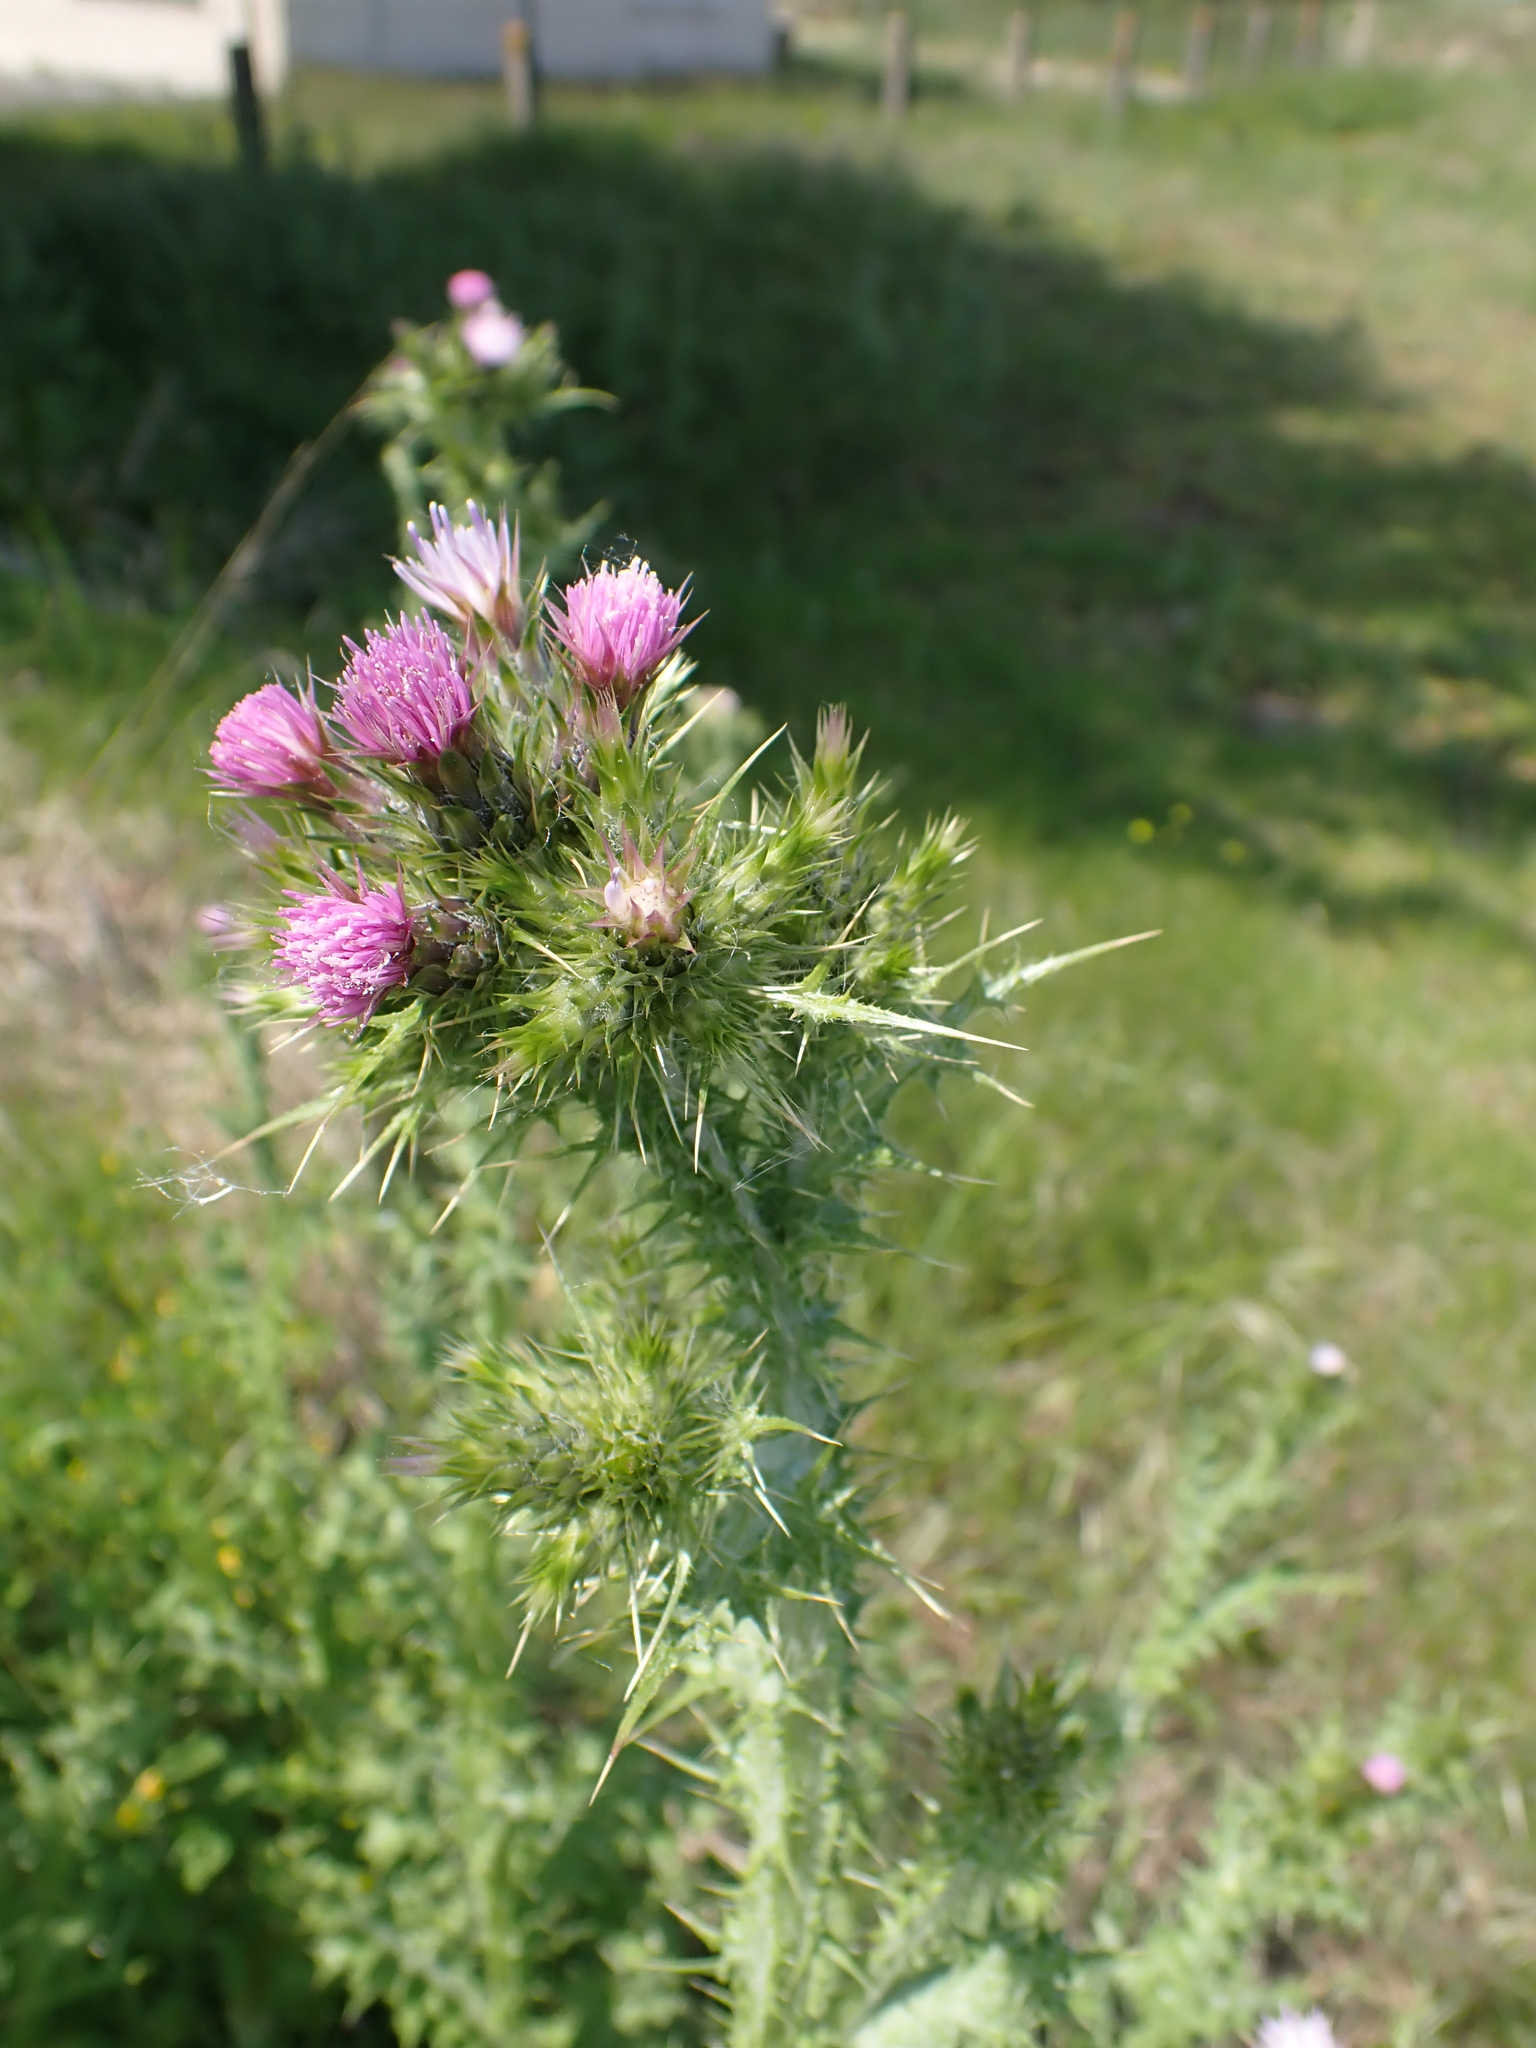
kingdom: Plantae
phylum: Tracheophyta
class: Magnoliopsida
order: Asterales
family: Asteraceae
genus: Carduus
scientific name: Carduus tenuiflorus
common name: Slender thistle
